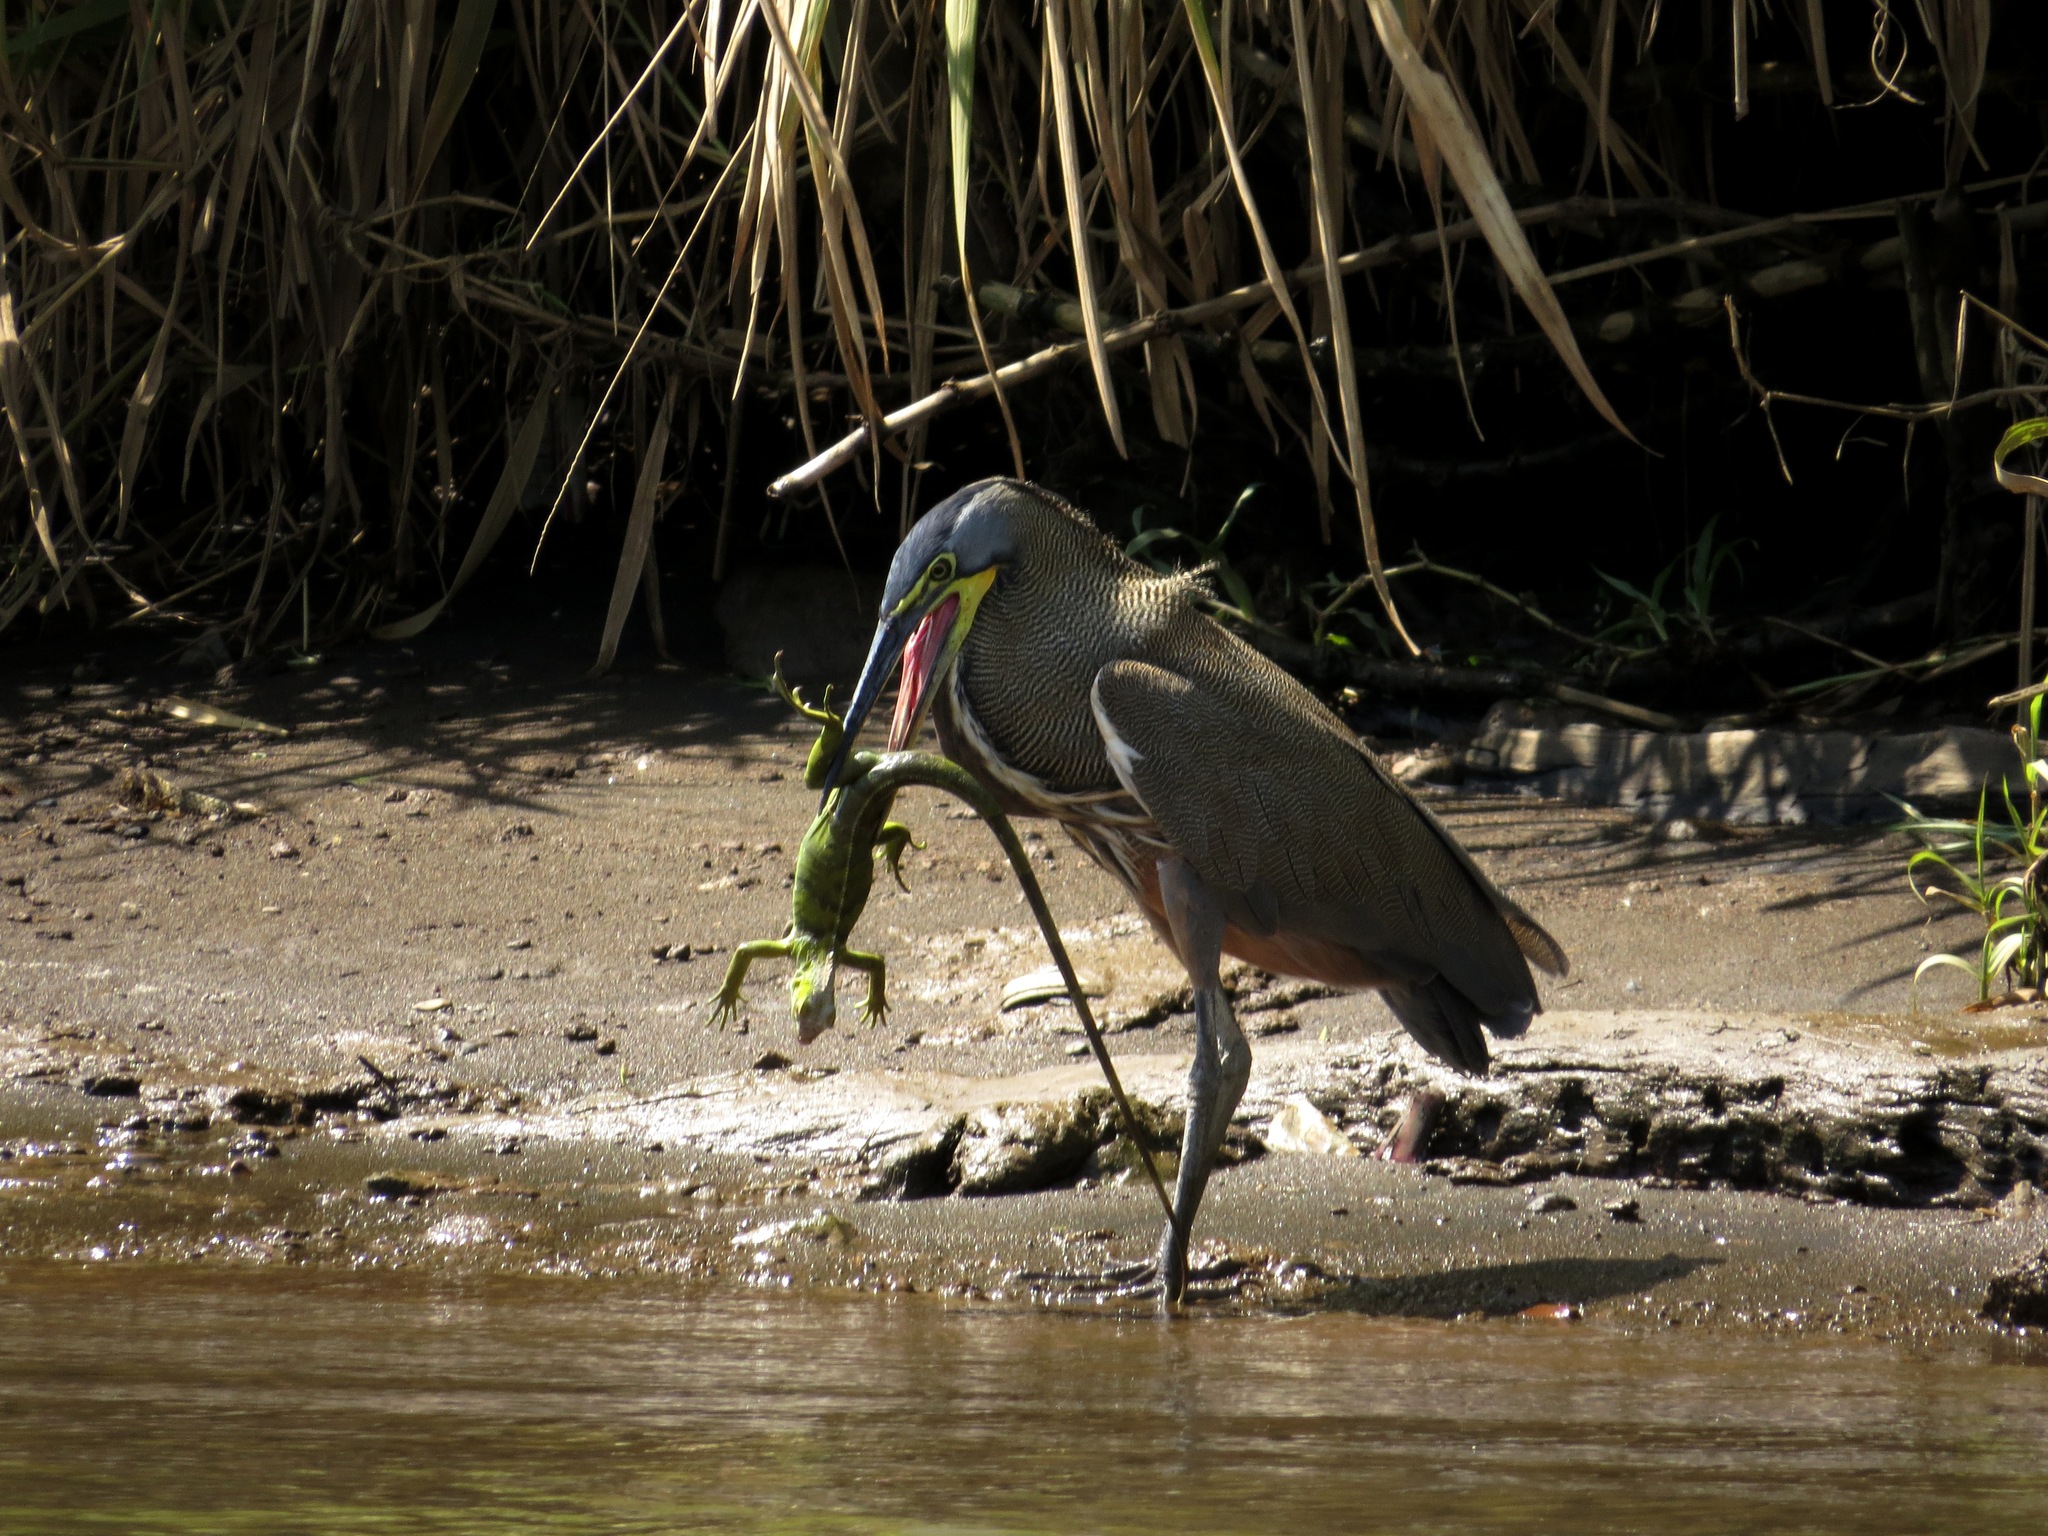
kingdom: Animalia
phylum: Chordata
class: Aves
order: Pelecaniformes
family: Ardeidae
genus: Tigrisoma
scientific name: Tigrisoma mexicanum
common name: Bare-throated tiger-heron
